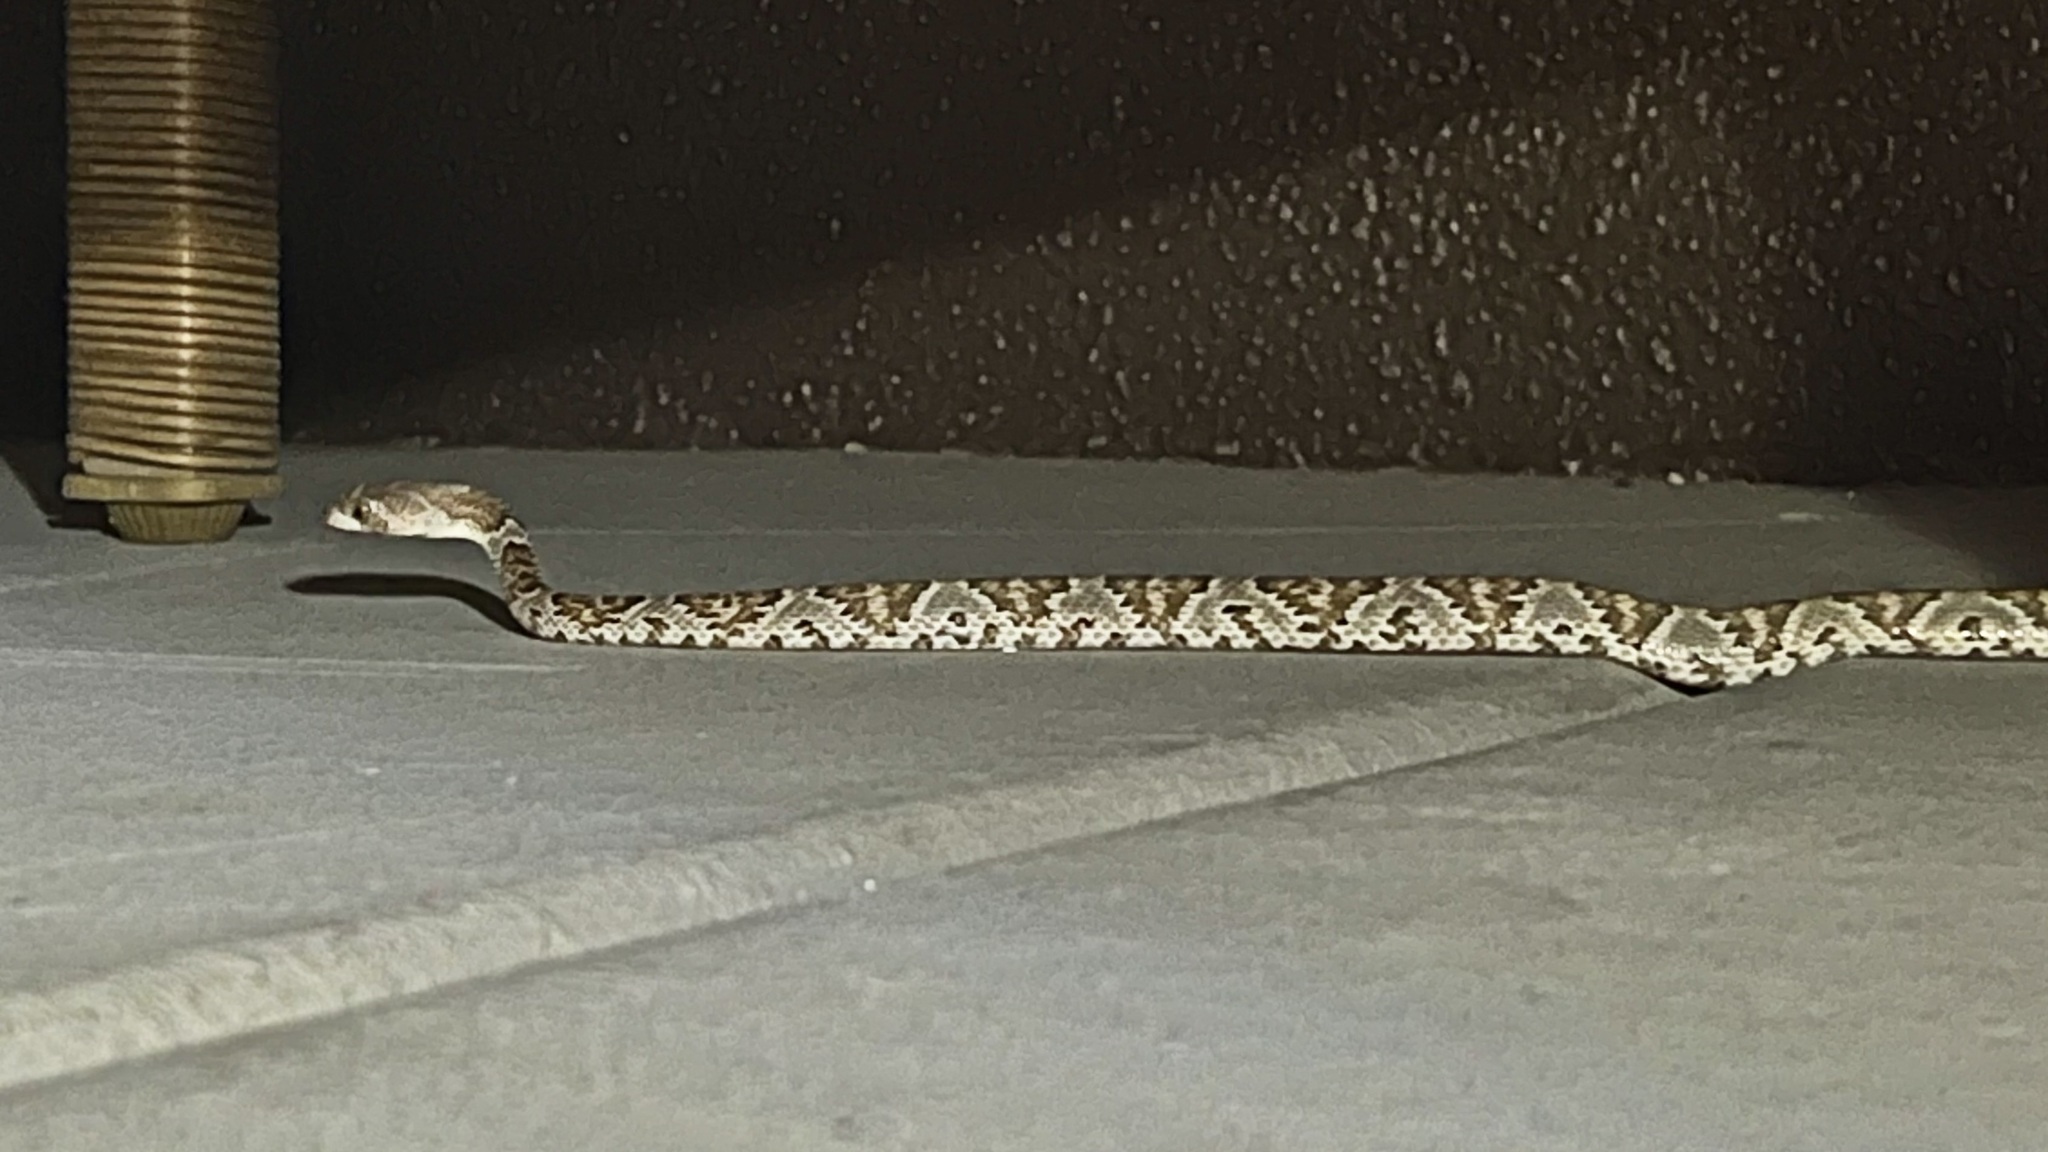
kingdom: Animalia
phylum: Chordata
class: Squamata
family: Colubridae
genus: Trimorphodon
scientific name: Trimorphodon lambda
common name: Sonoran lyre snake
